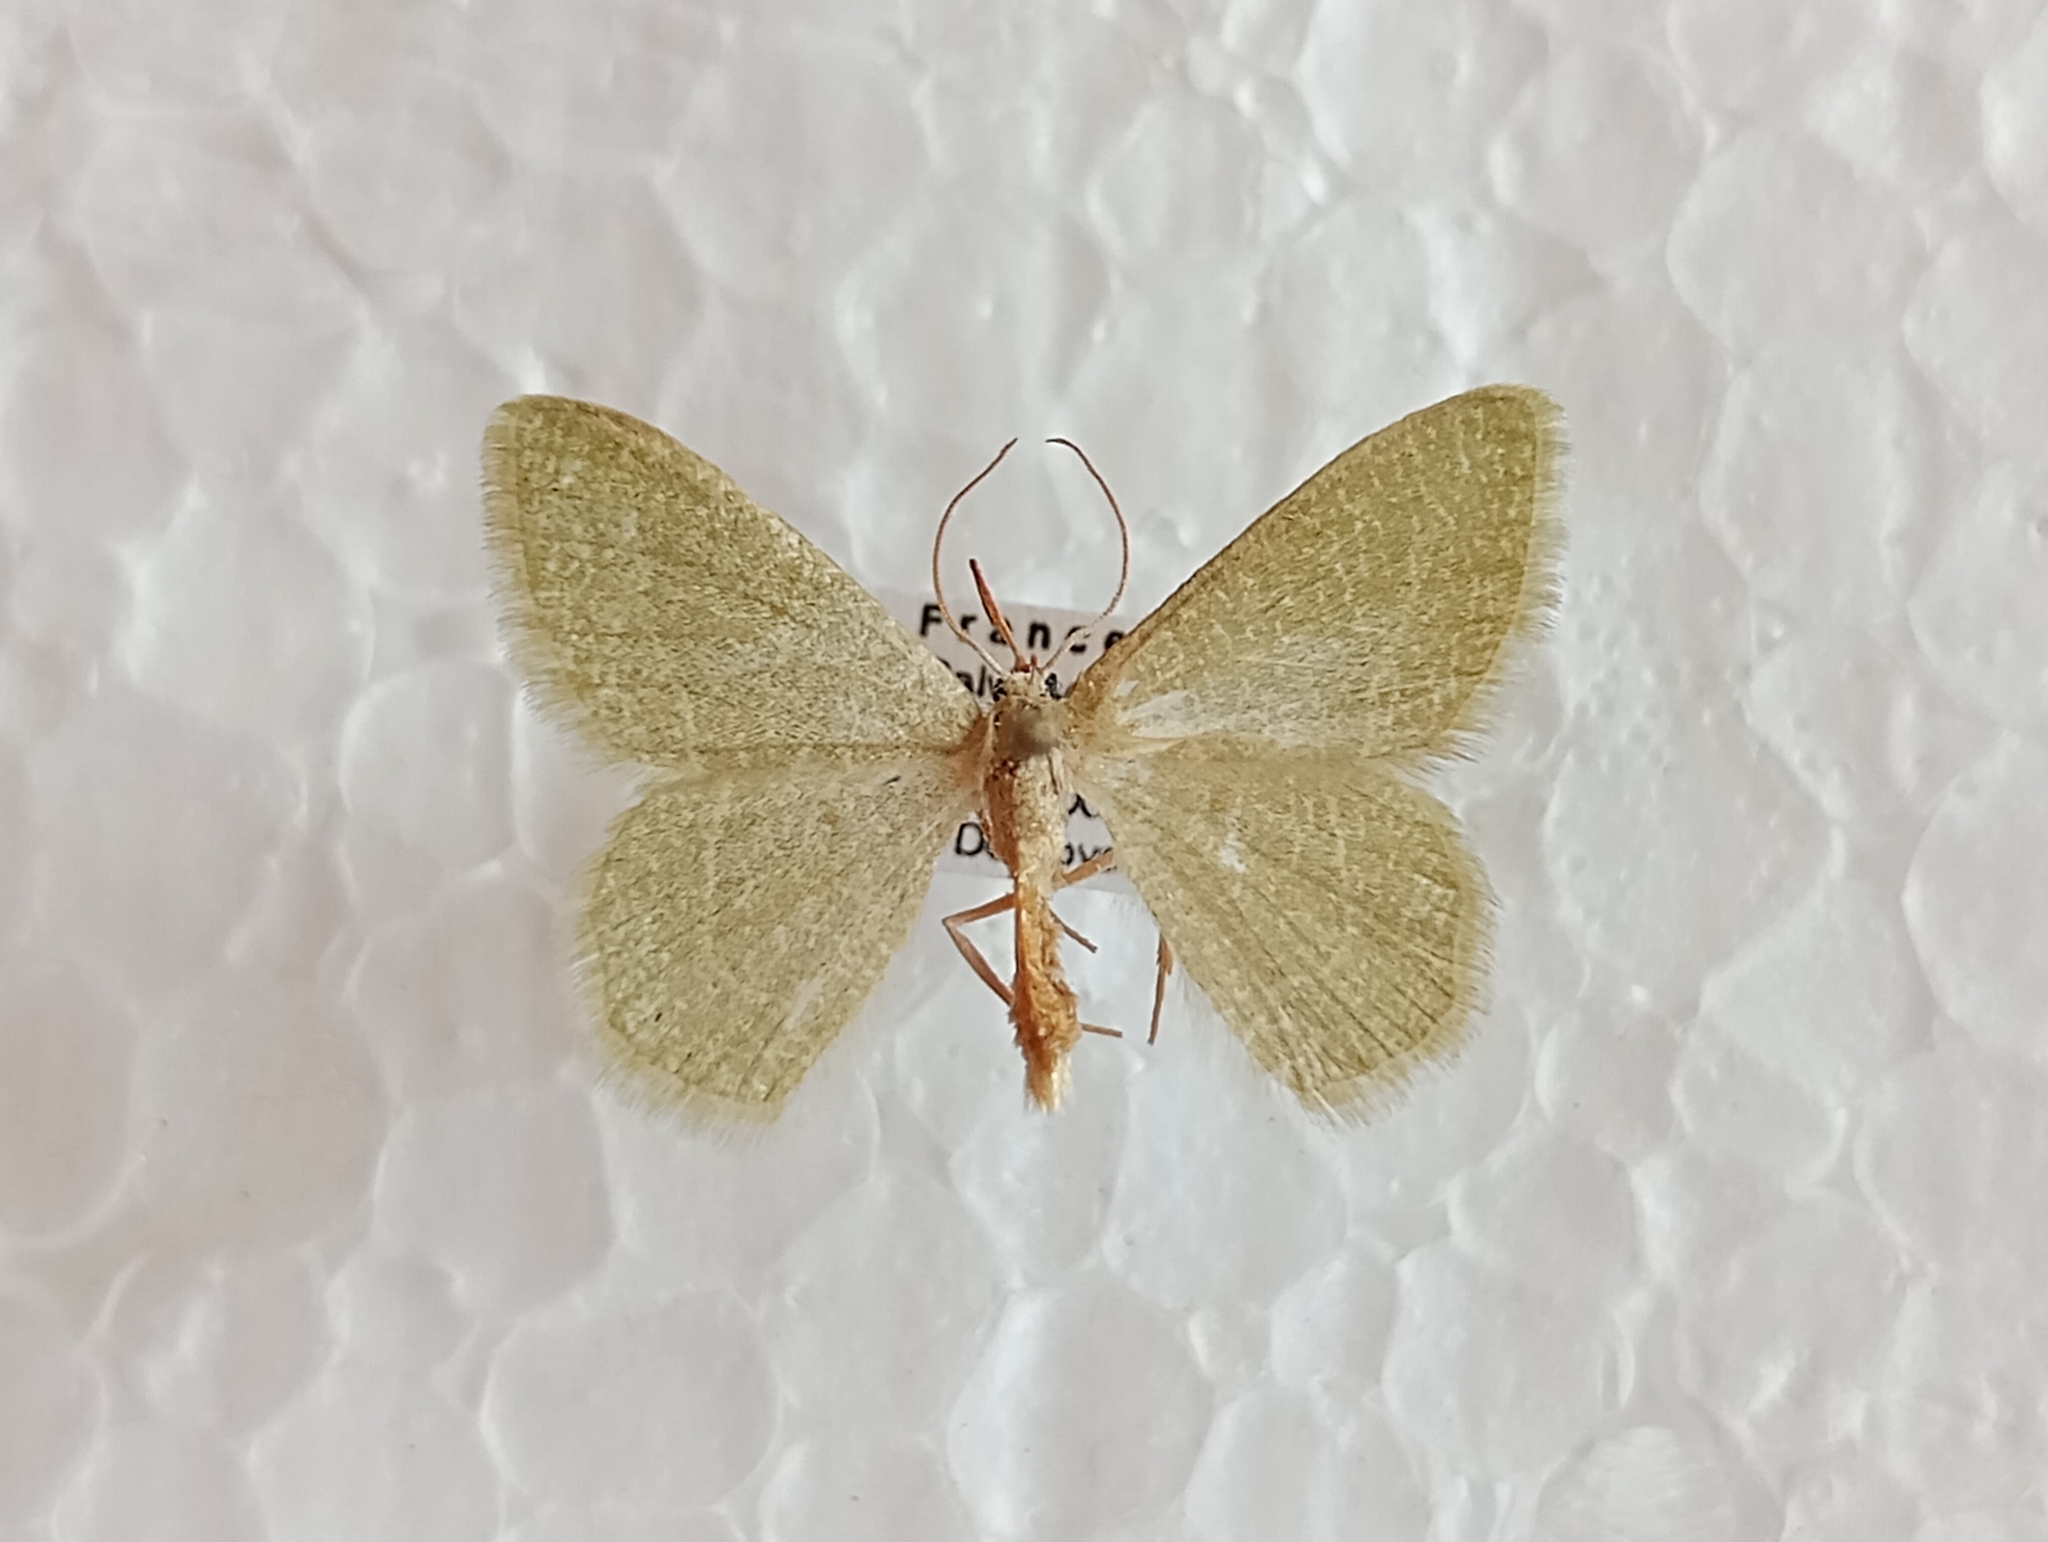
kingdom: Animalia
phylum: Arthropoda
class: Insecta
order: Lepidoptera
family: Geometridae
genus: Chlorissa
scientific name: Chlorissa etruscaria
